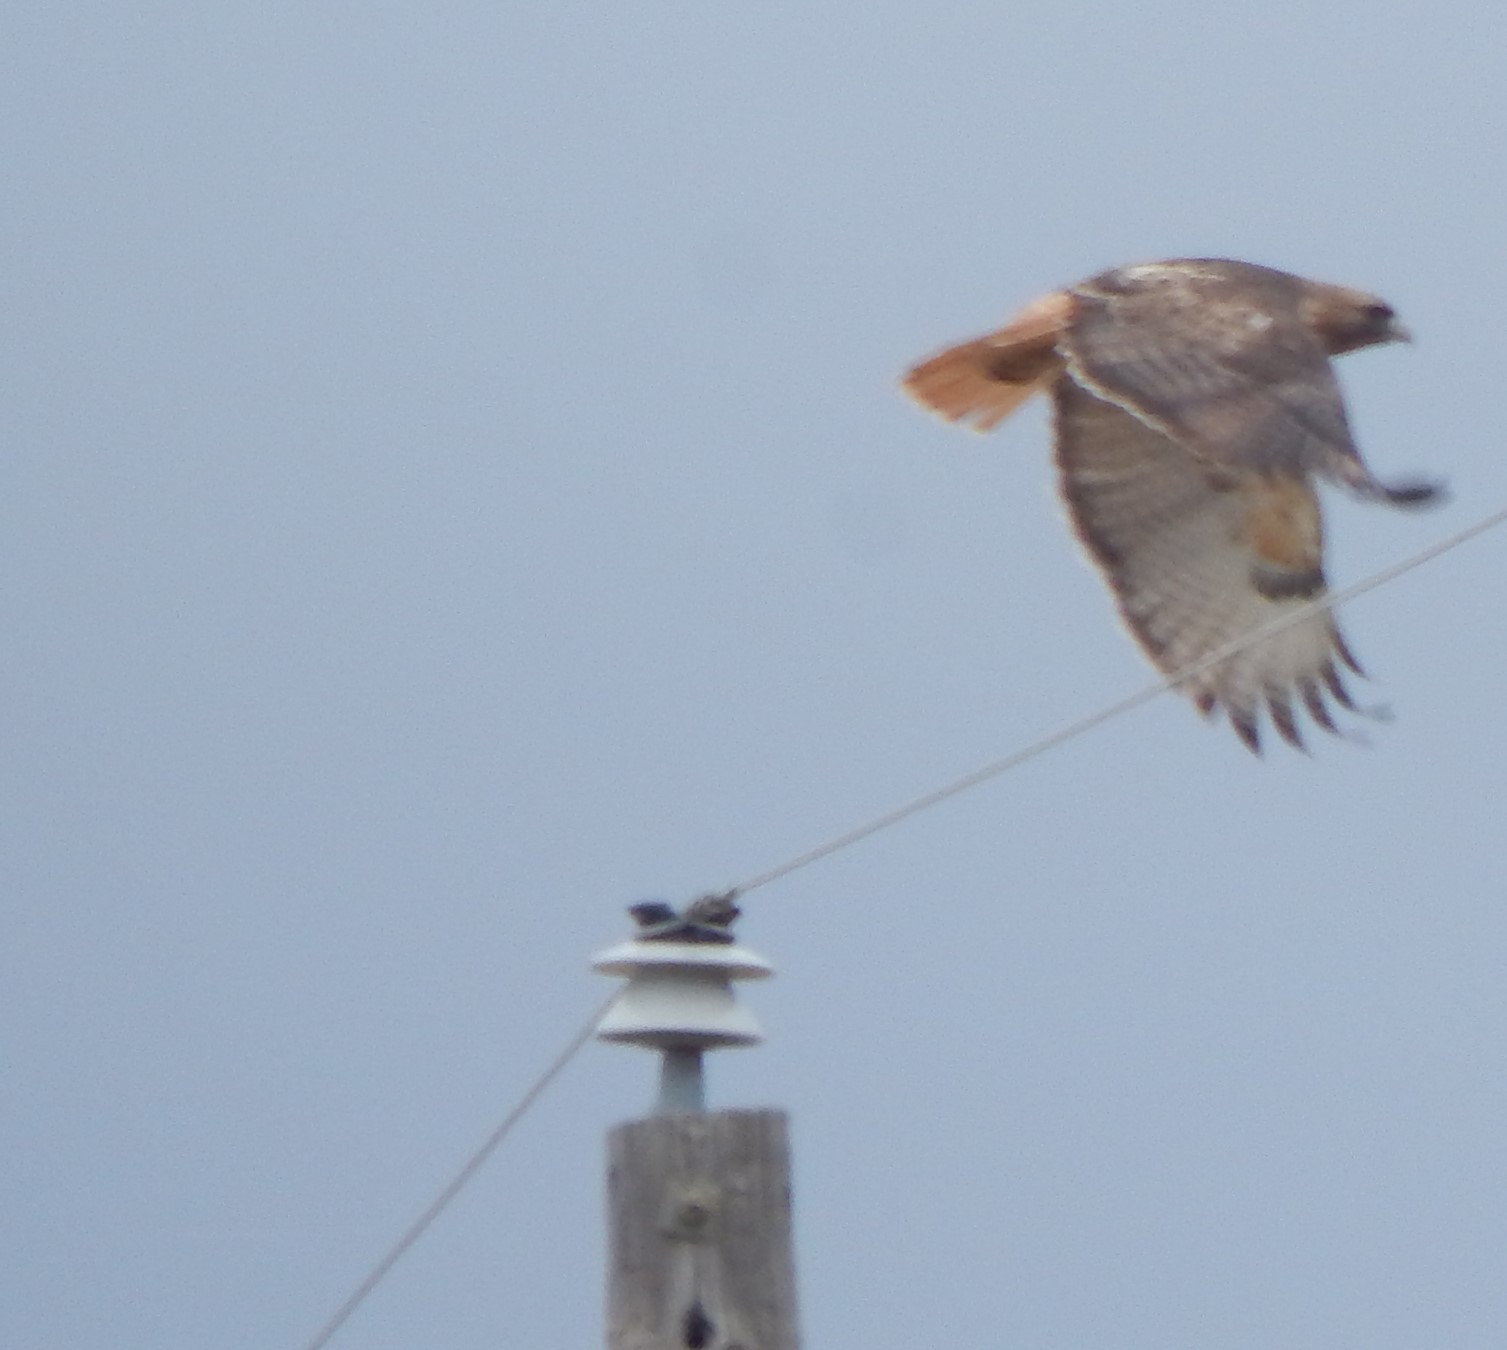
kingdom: Animalia
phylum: Chordata
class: Aves
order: Accipitriformes
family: Accipitridae
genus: Buteo
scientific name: Buteo jamaicensis
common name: Red-tailed hawk
